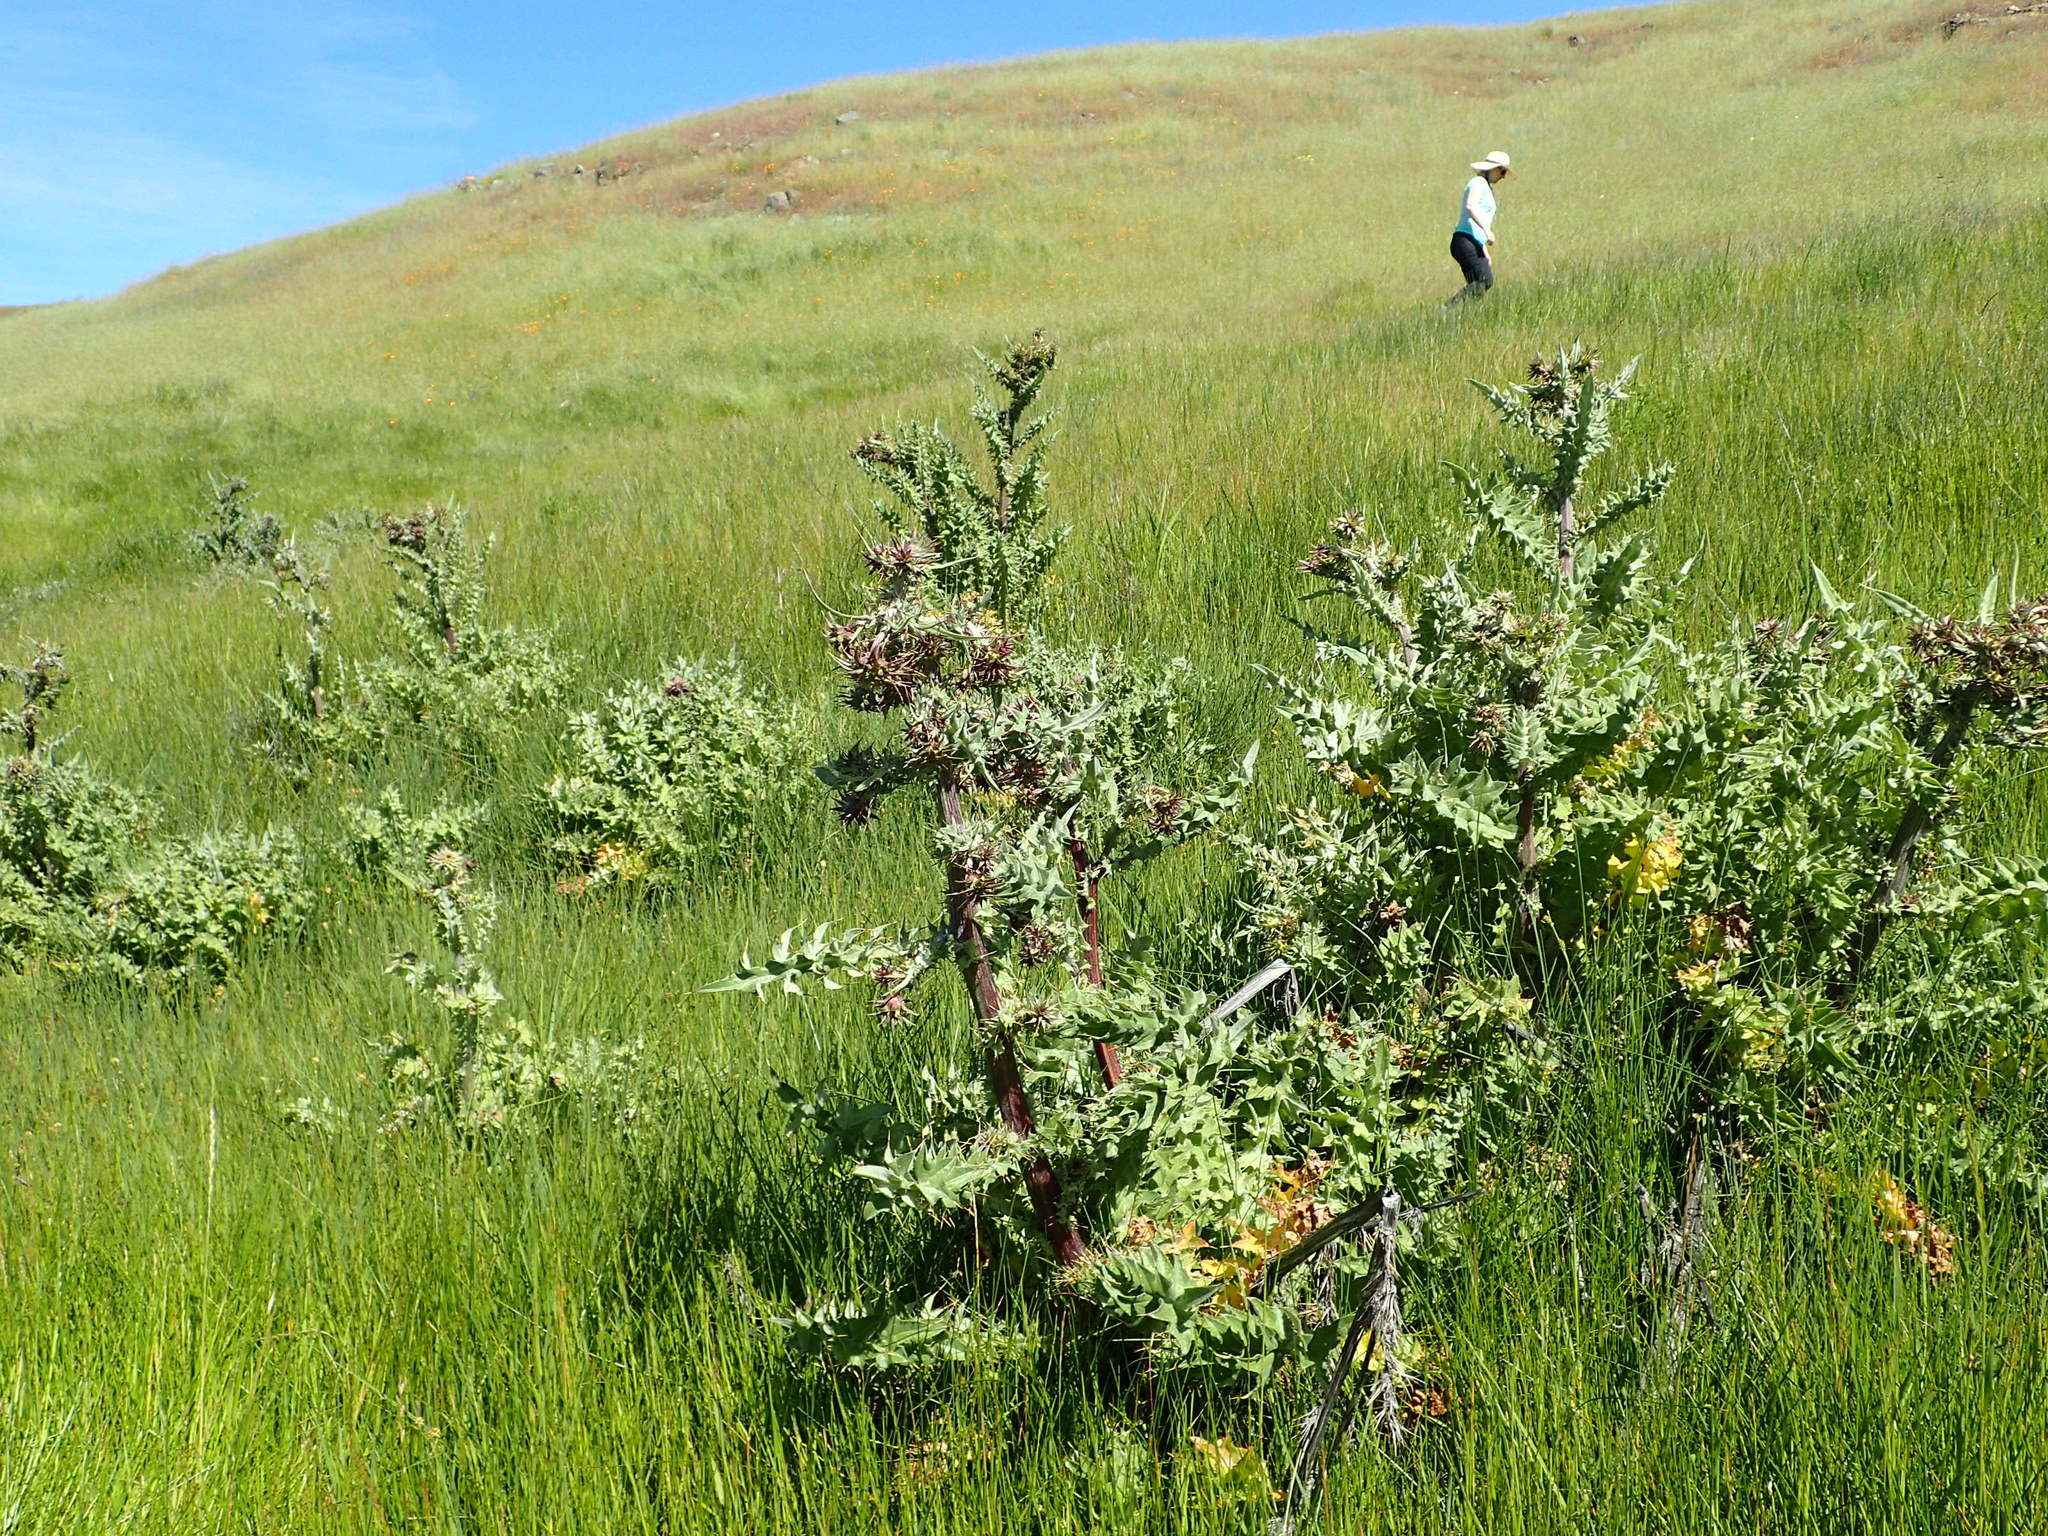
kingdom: Plantae
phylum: Tracheophyta
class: Magnoliopsida
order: Asterales
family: Asteraceae
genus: Cirsium
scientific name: Cirsium fontinale
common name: Fountain thistle
